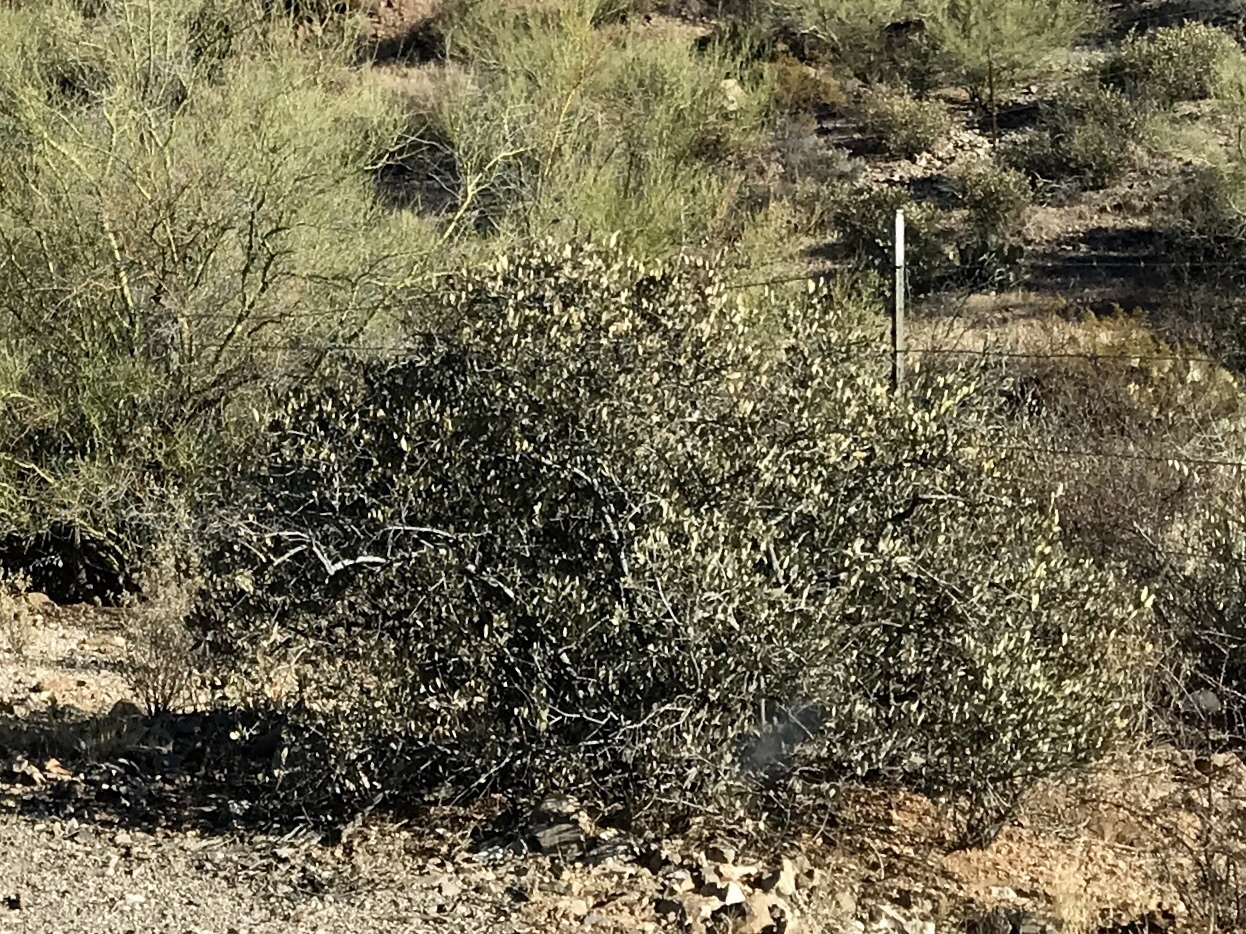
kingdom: Plantae
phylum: Tracheophyta
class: Magnoliopsida
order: Caryophyllales
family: Simmondsiaceae
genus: Simmondsia
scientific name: Simmondsia chinensis
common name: Jojoba
